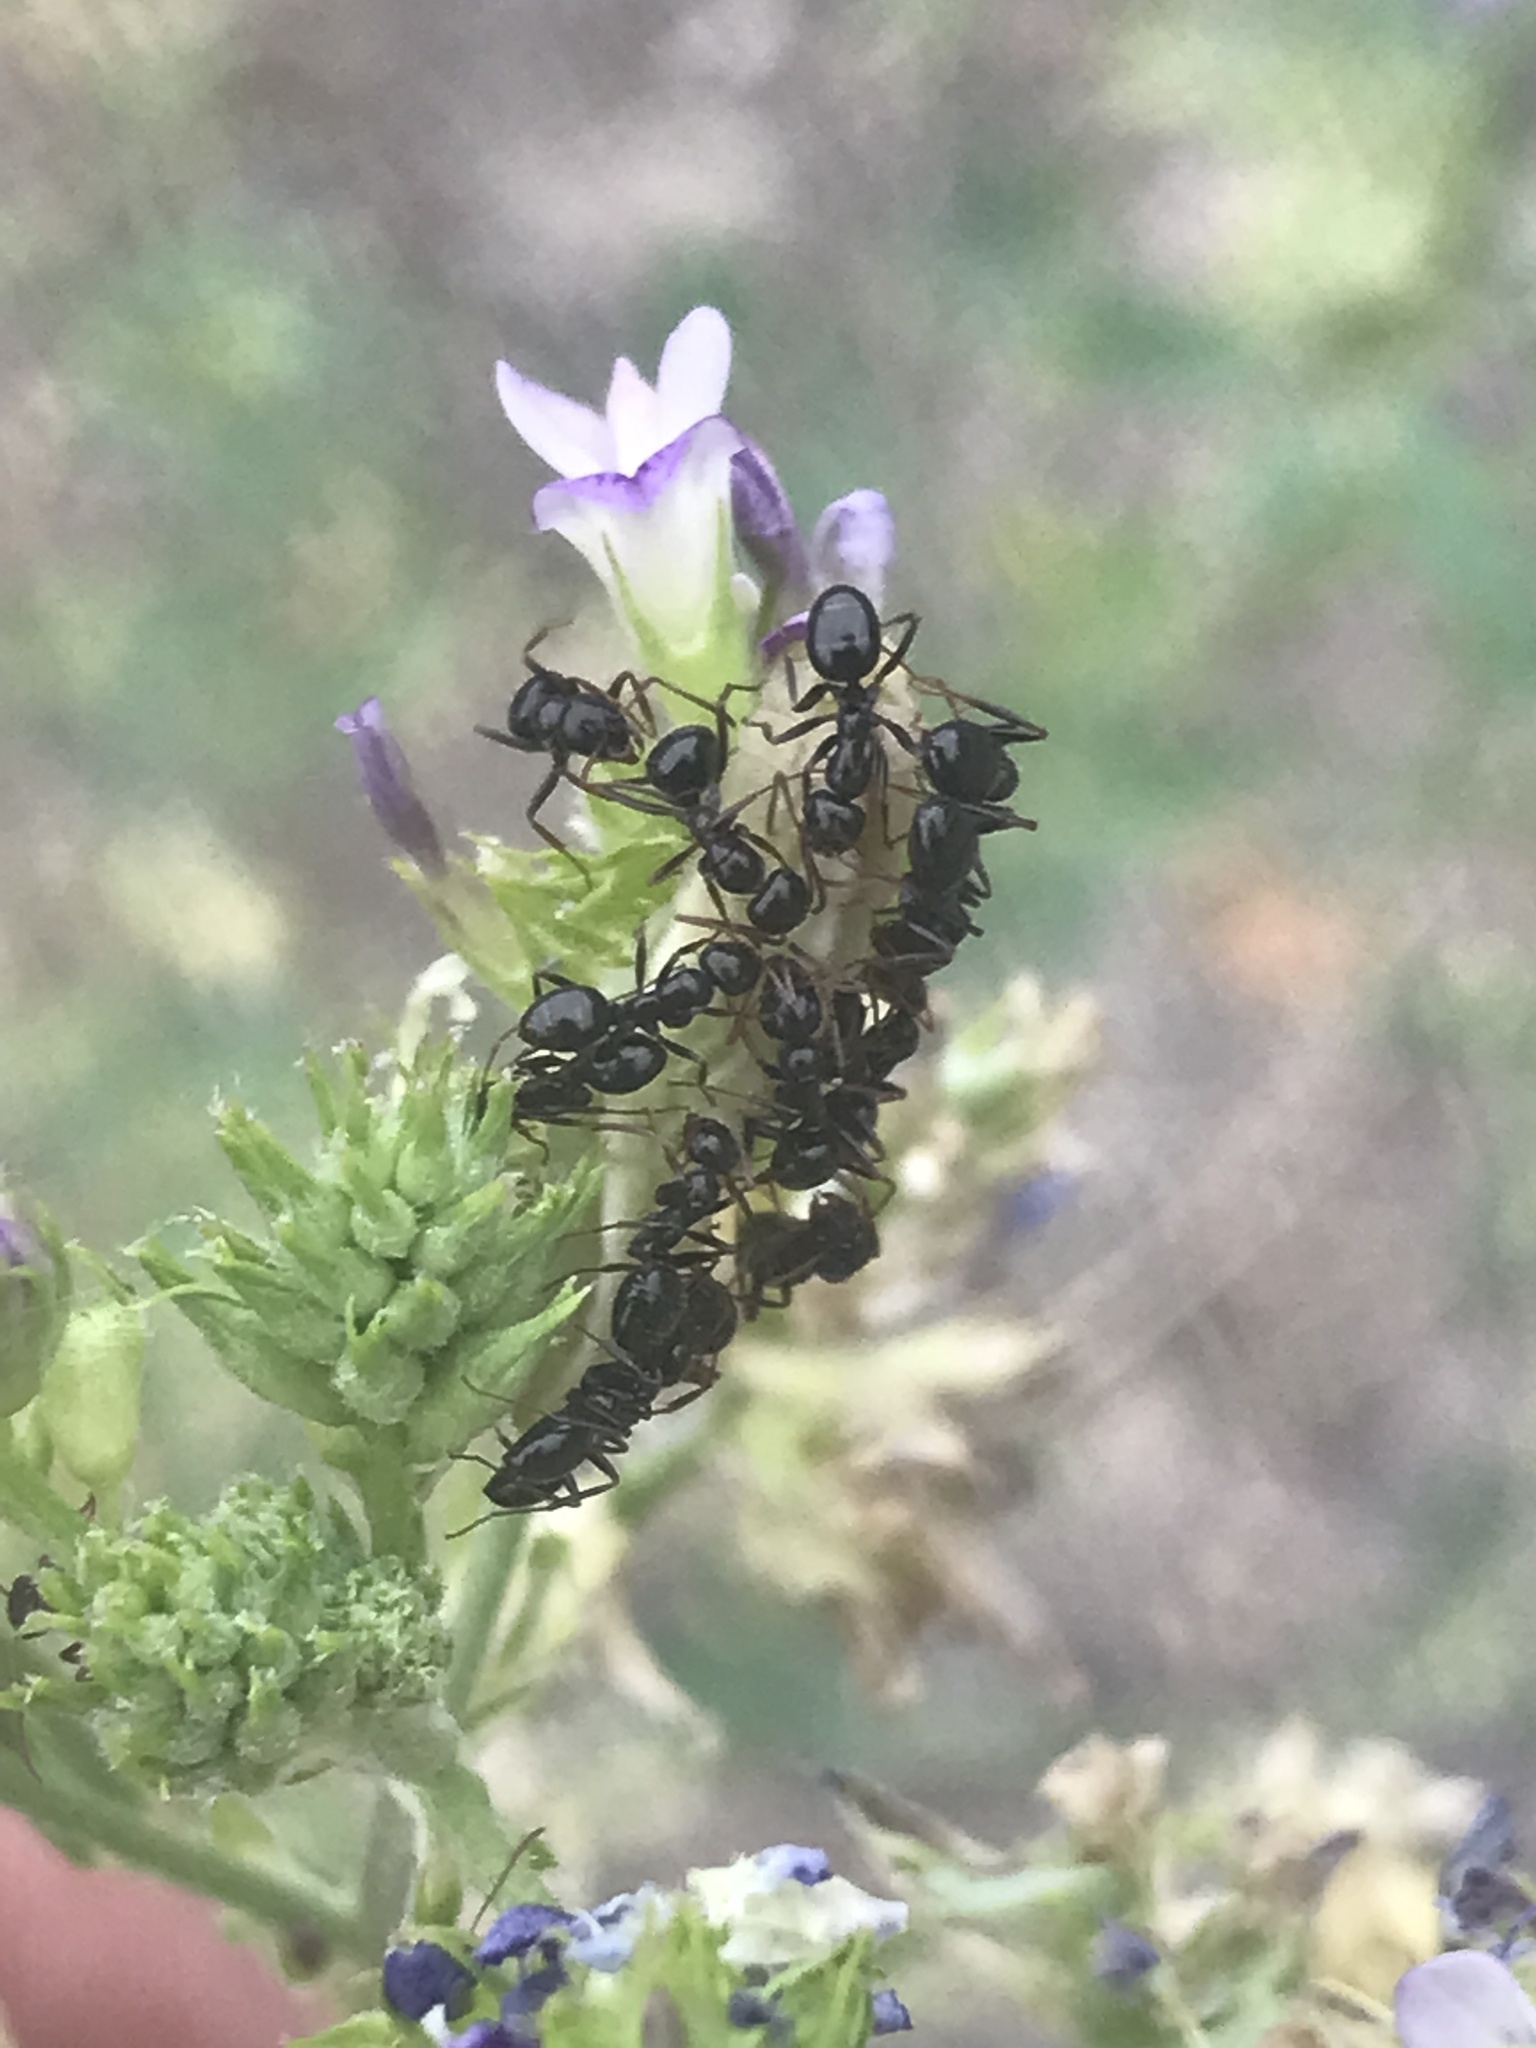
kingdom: Animalia
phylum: Arthropoda
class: Insecta
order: Hymenoptera
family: Formicidae
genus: Formica
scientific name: Formica
